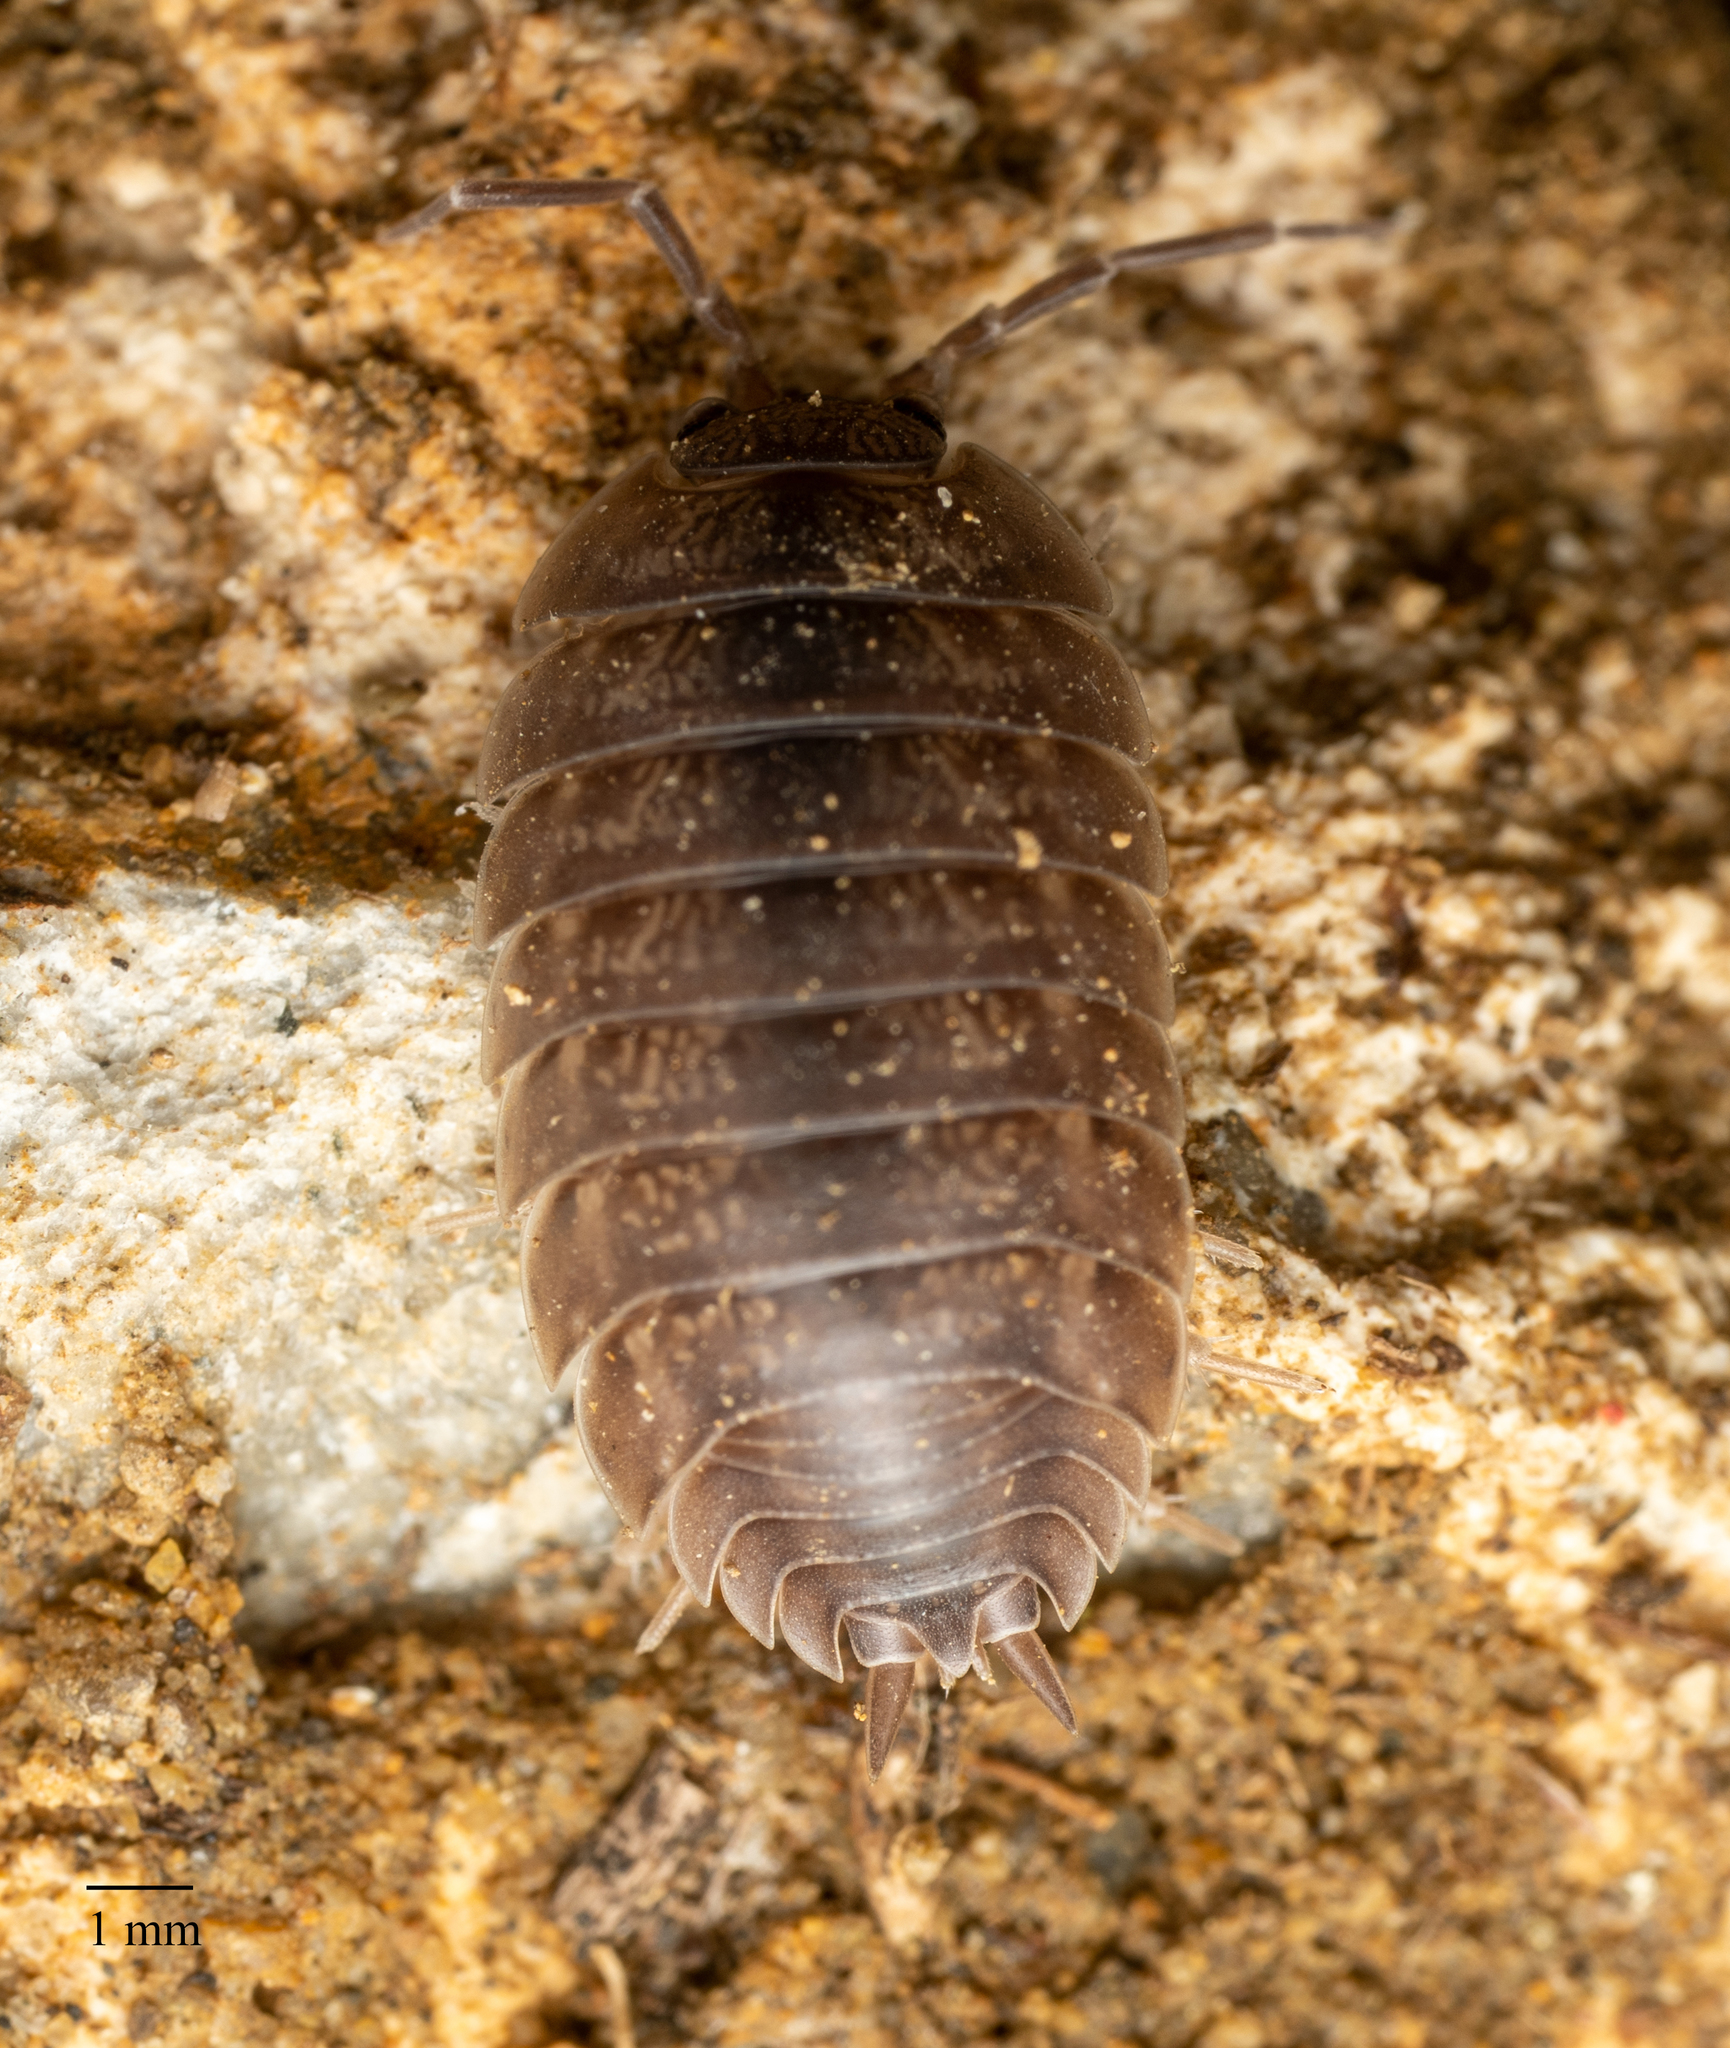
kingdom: Animalia
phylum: Arthropoda
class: Malacostraca
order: Isopoda
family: Porcellionidae
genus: Porcellio
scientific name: Porcellio laevis
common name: Swift woodlouse
